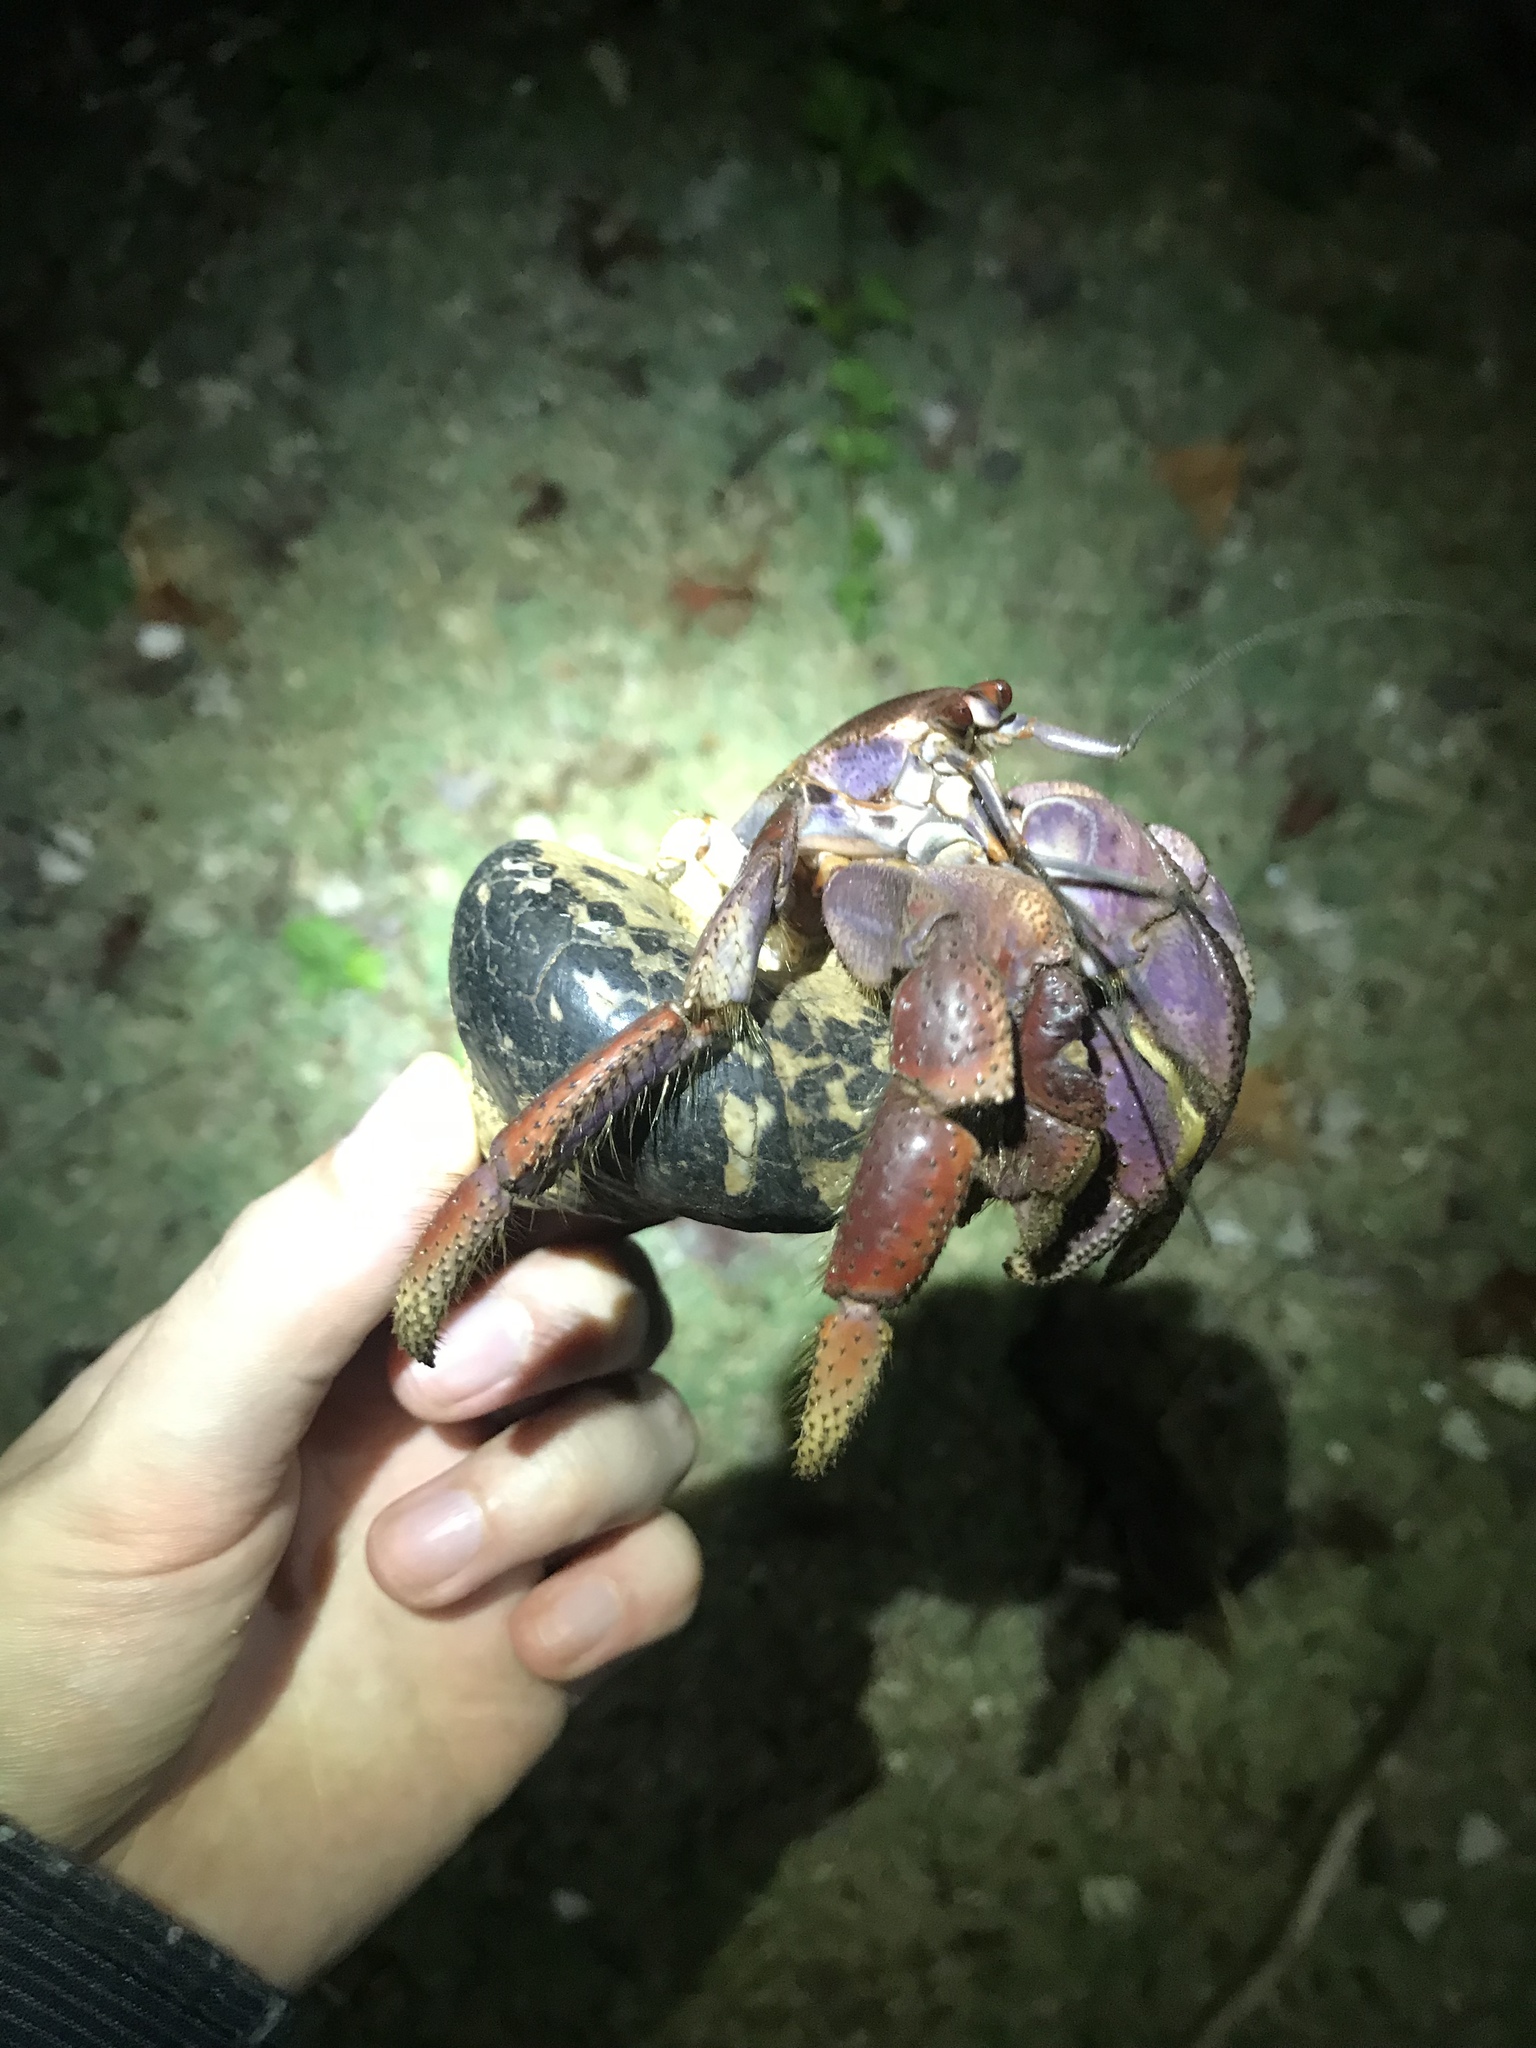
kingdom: Animalia
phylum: Arthropoda
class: Malacostraca
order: Decapoda
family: Coenobitidae
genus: Coenobita
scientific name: Coenobita clypeatus
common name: Caribbean hermit crab
